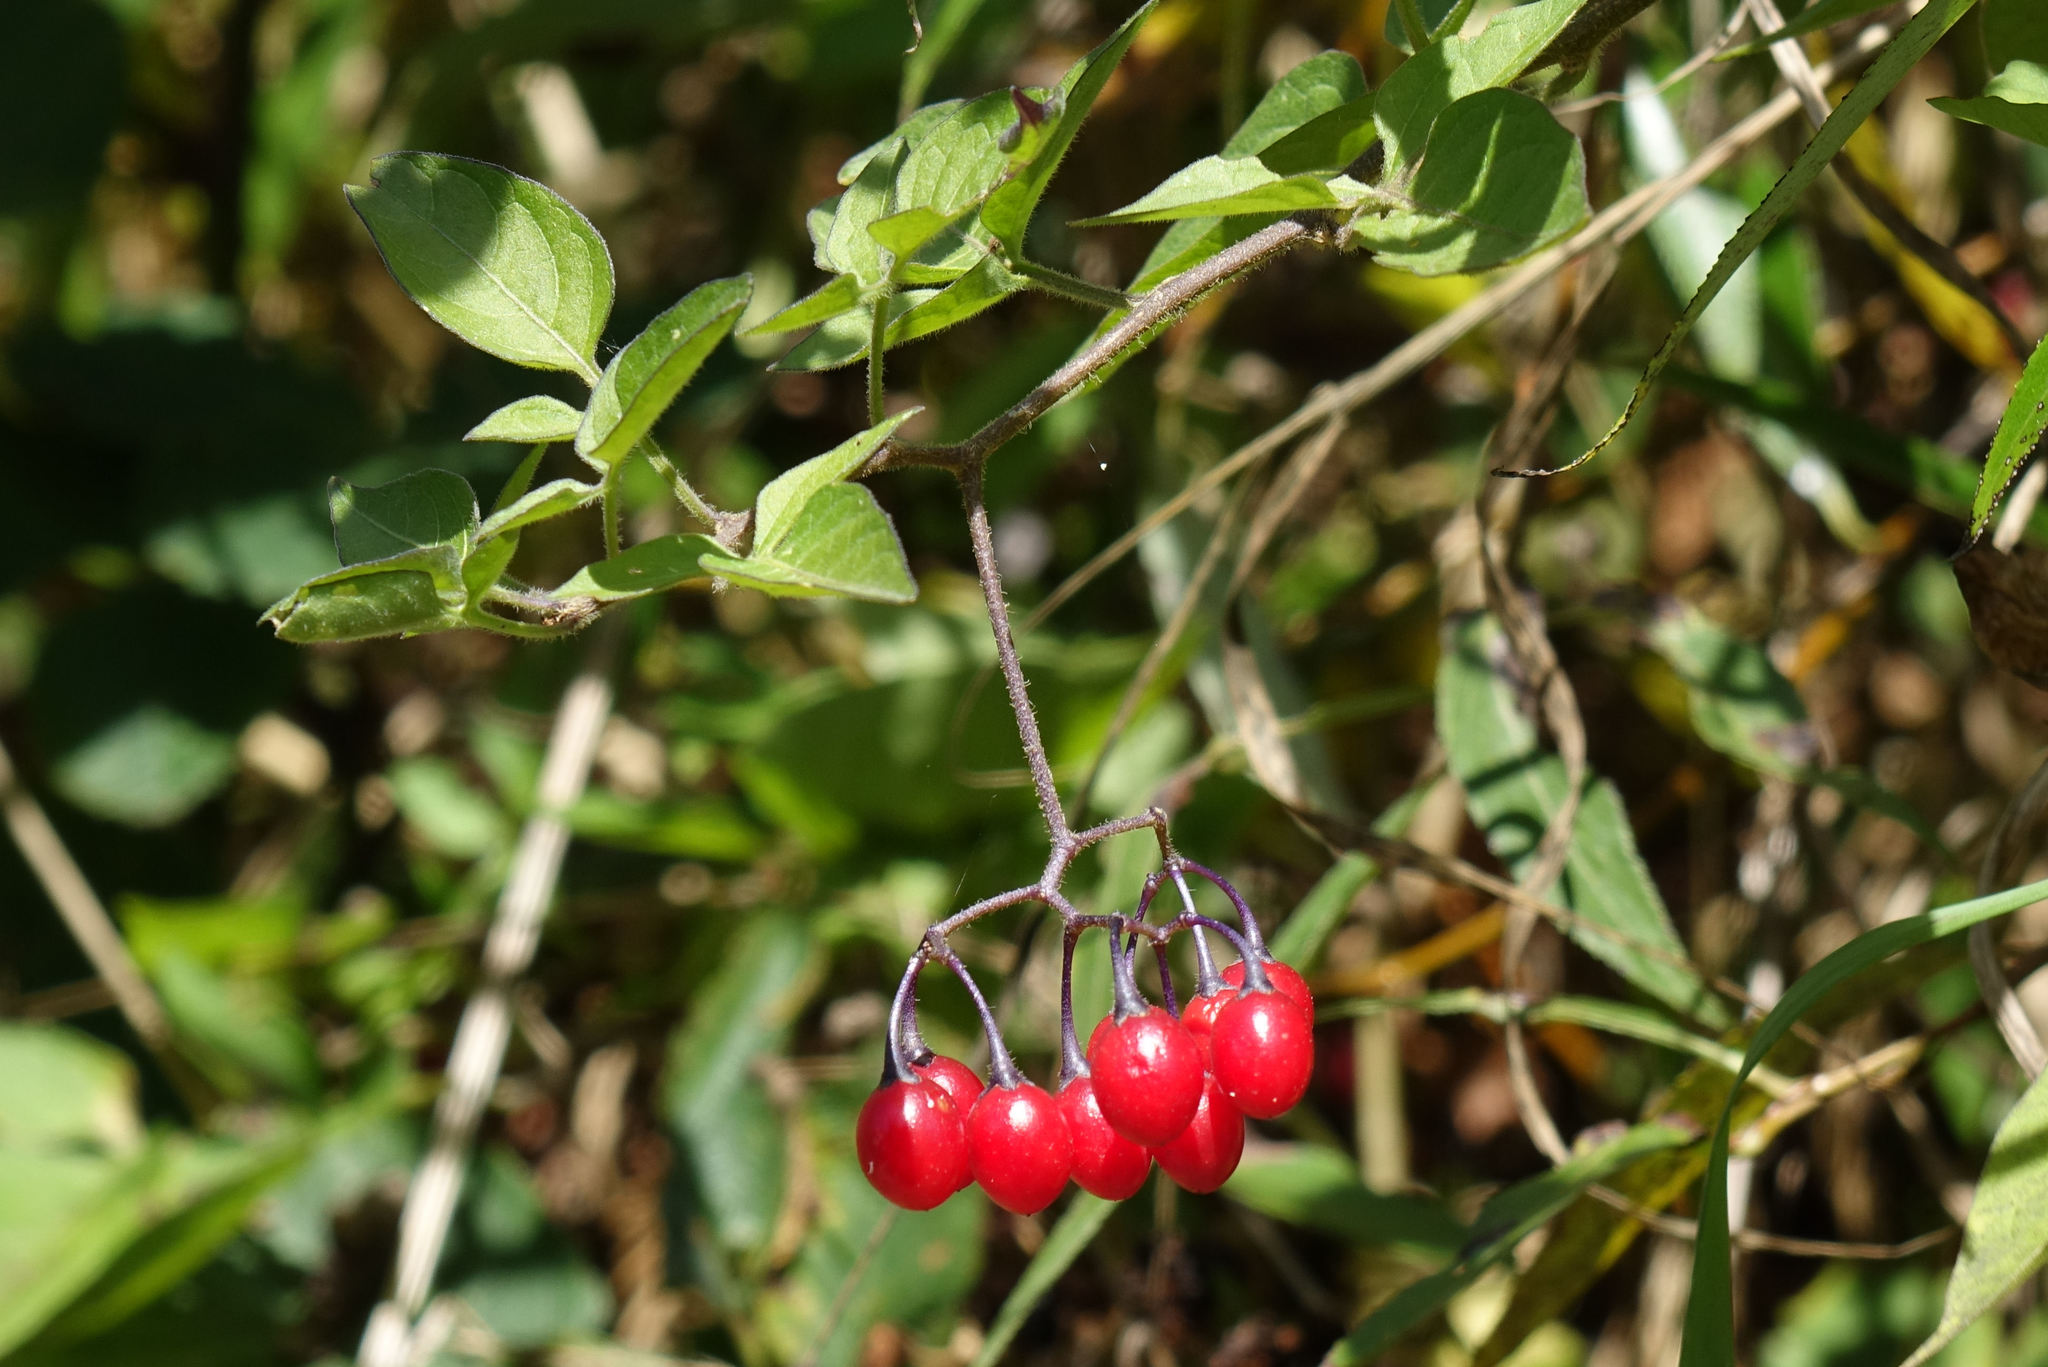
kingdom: Plantae
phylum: Tracheophyta
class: Magnoliopsida
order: Solanales
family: Solanaceae
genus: Solanum
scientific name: Solanum dulcamara
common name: Climbing nightshade
